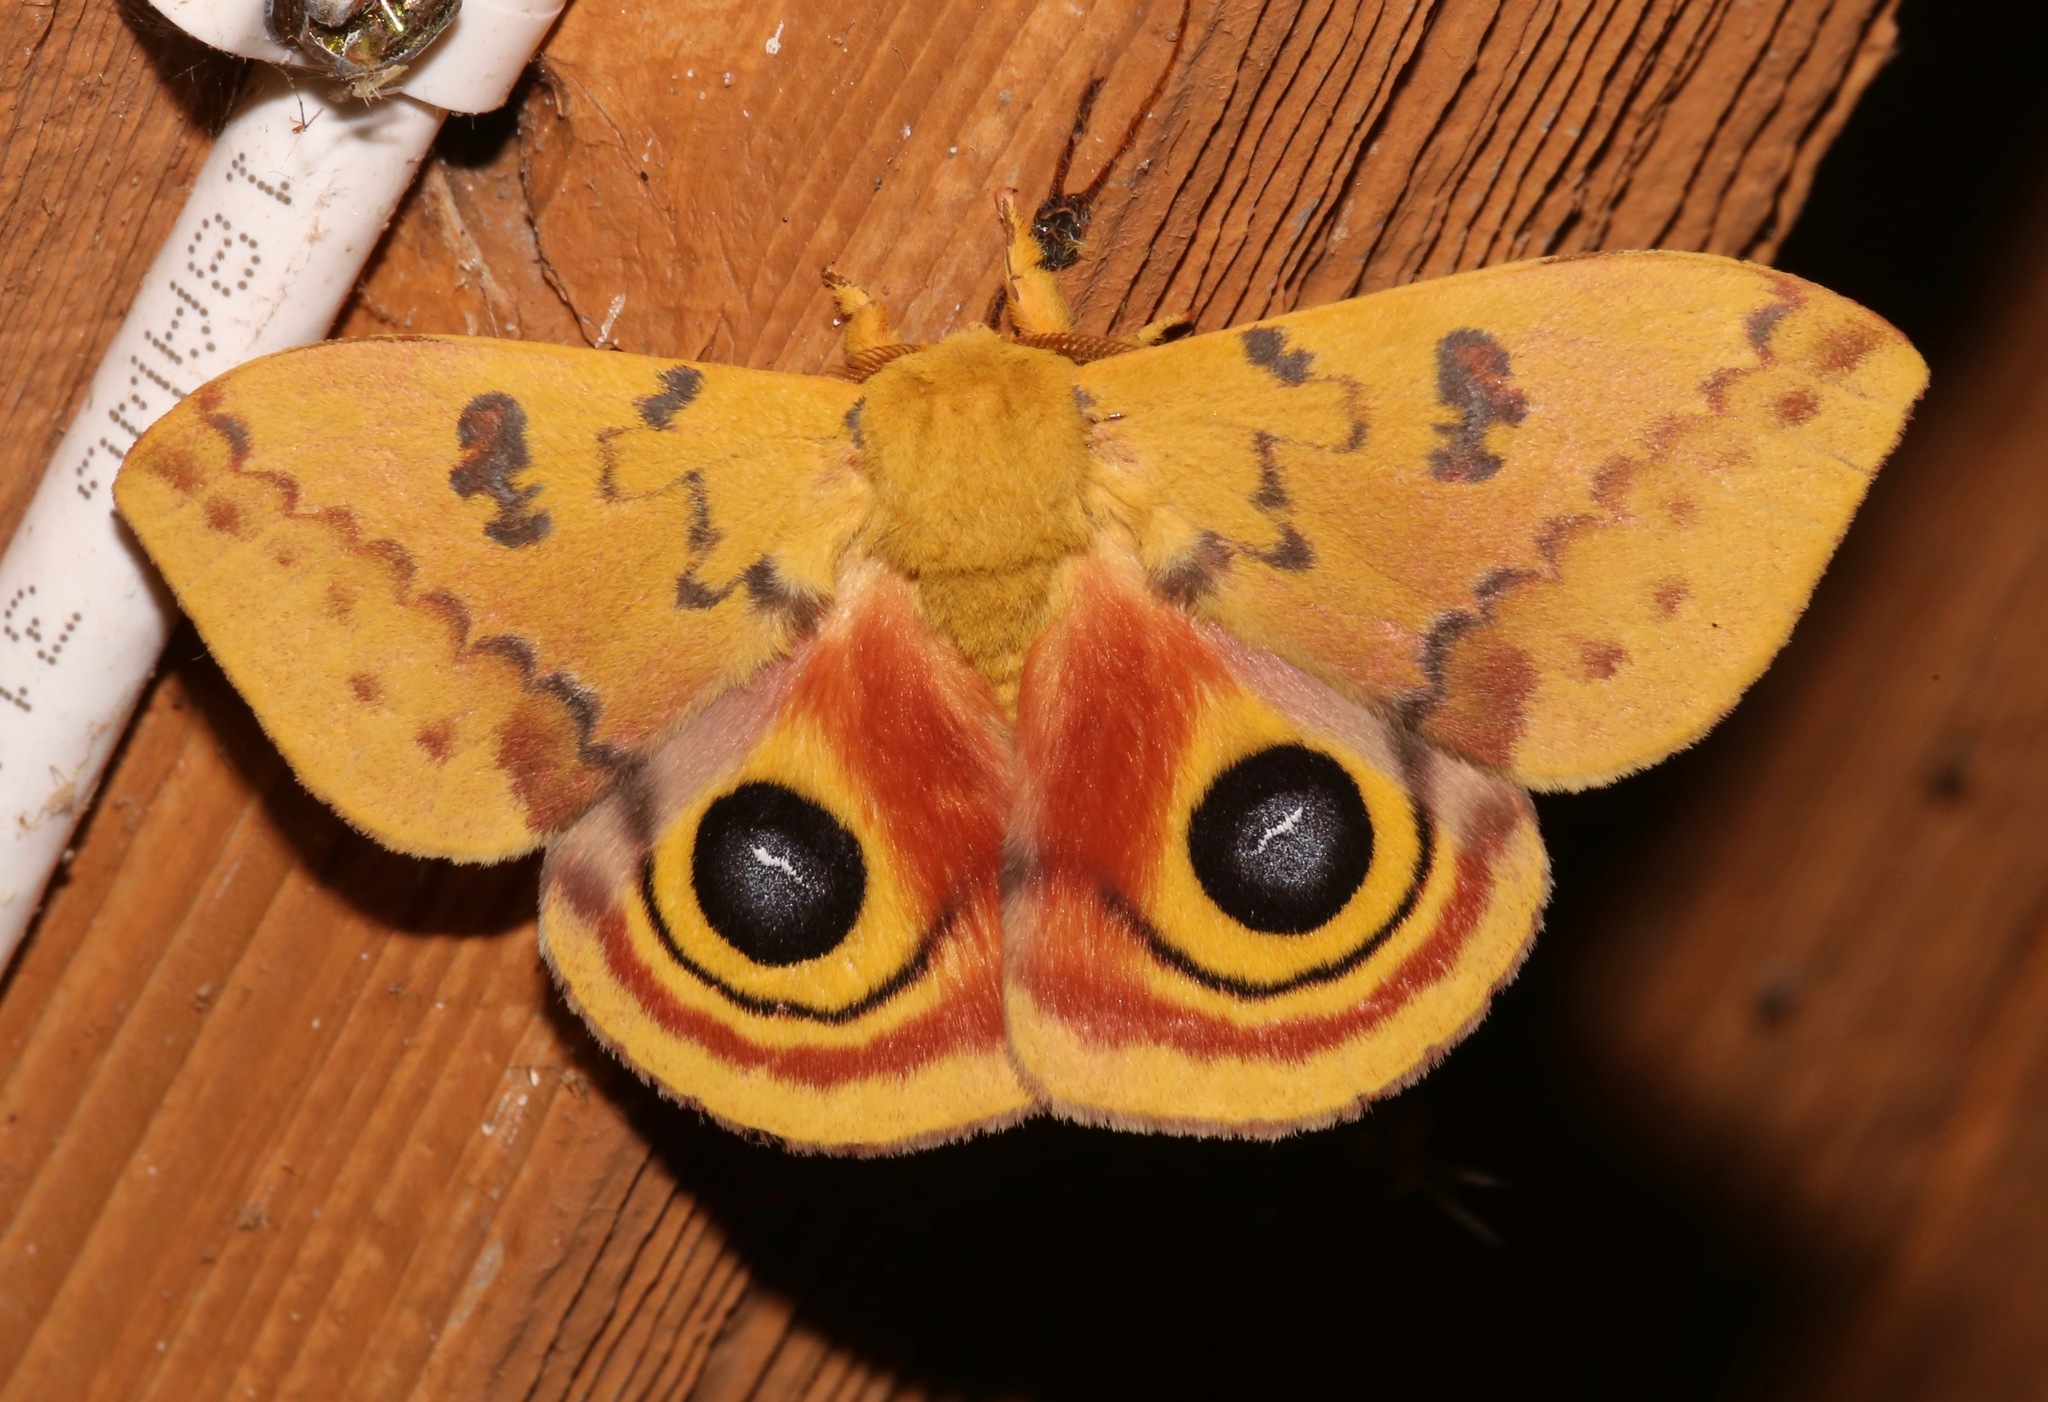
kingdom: Animalia
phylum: Arthropoda
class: Insecta
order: Lepidoptera
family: Saturniidae
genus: Automeris
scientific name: Automeris io
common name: Io moth
